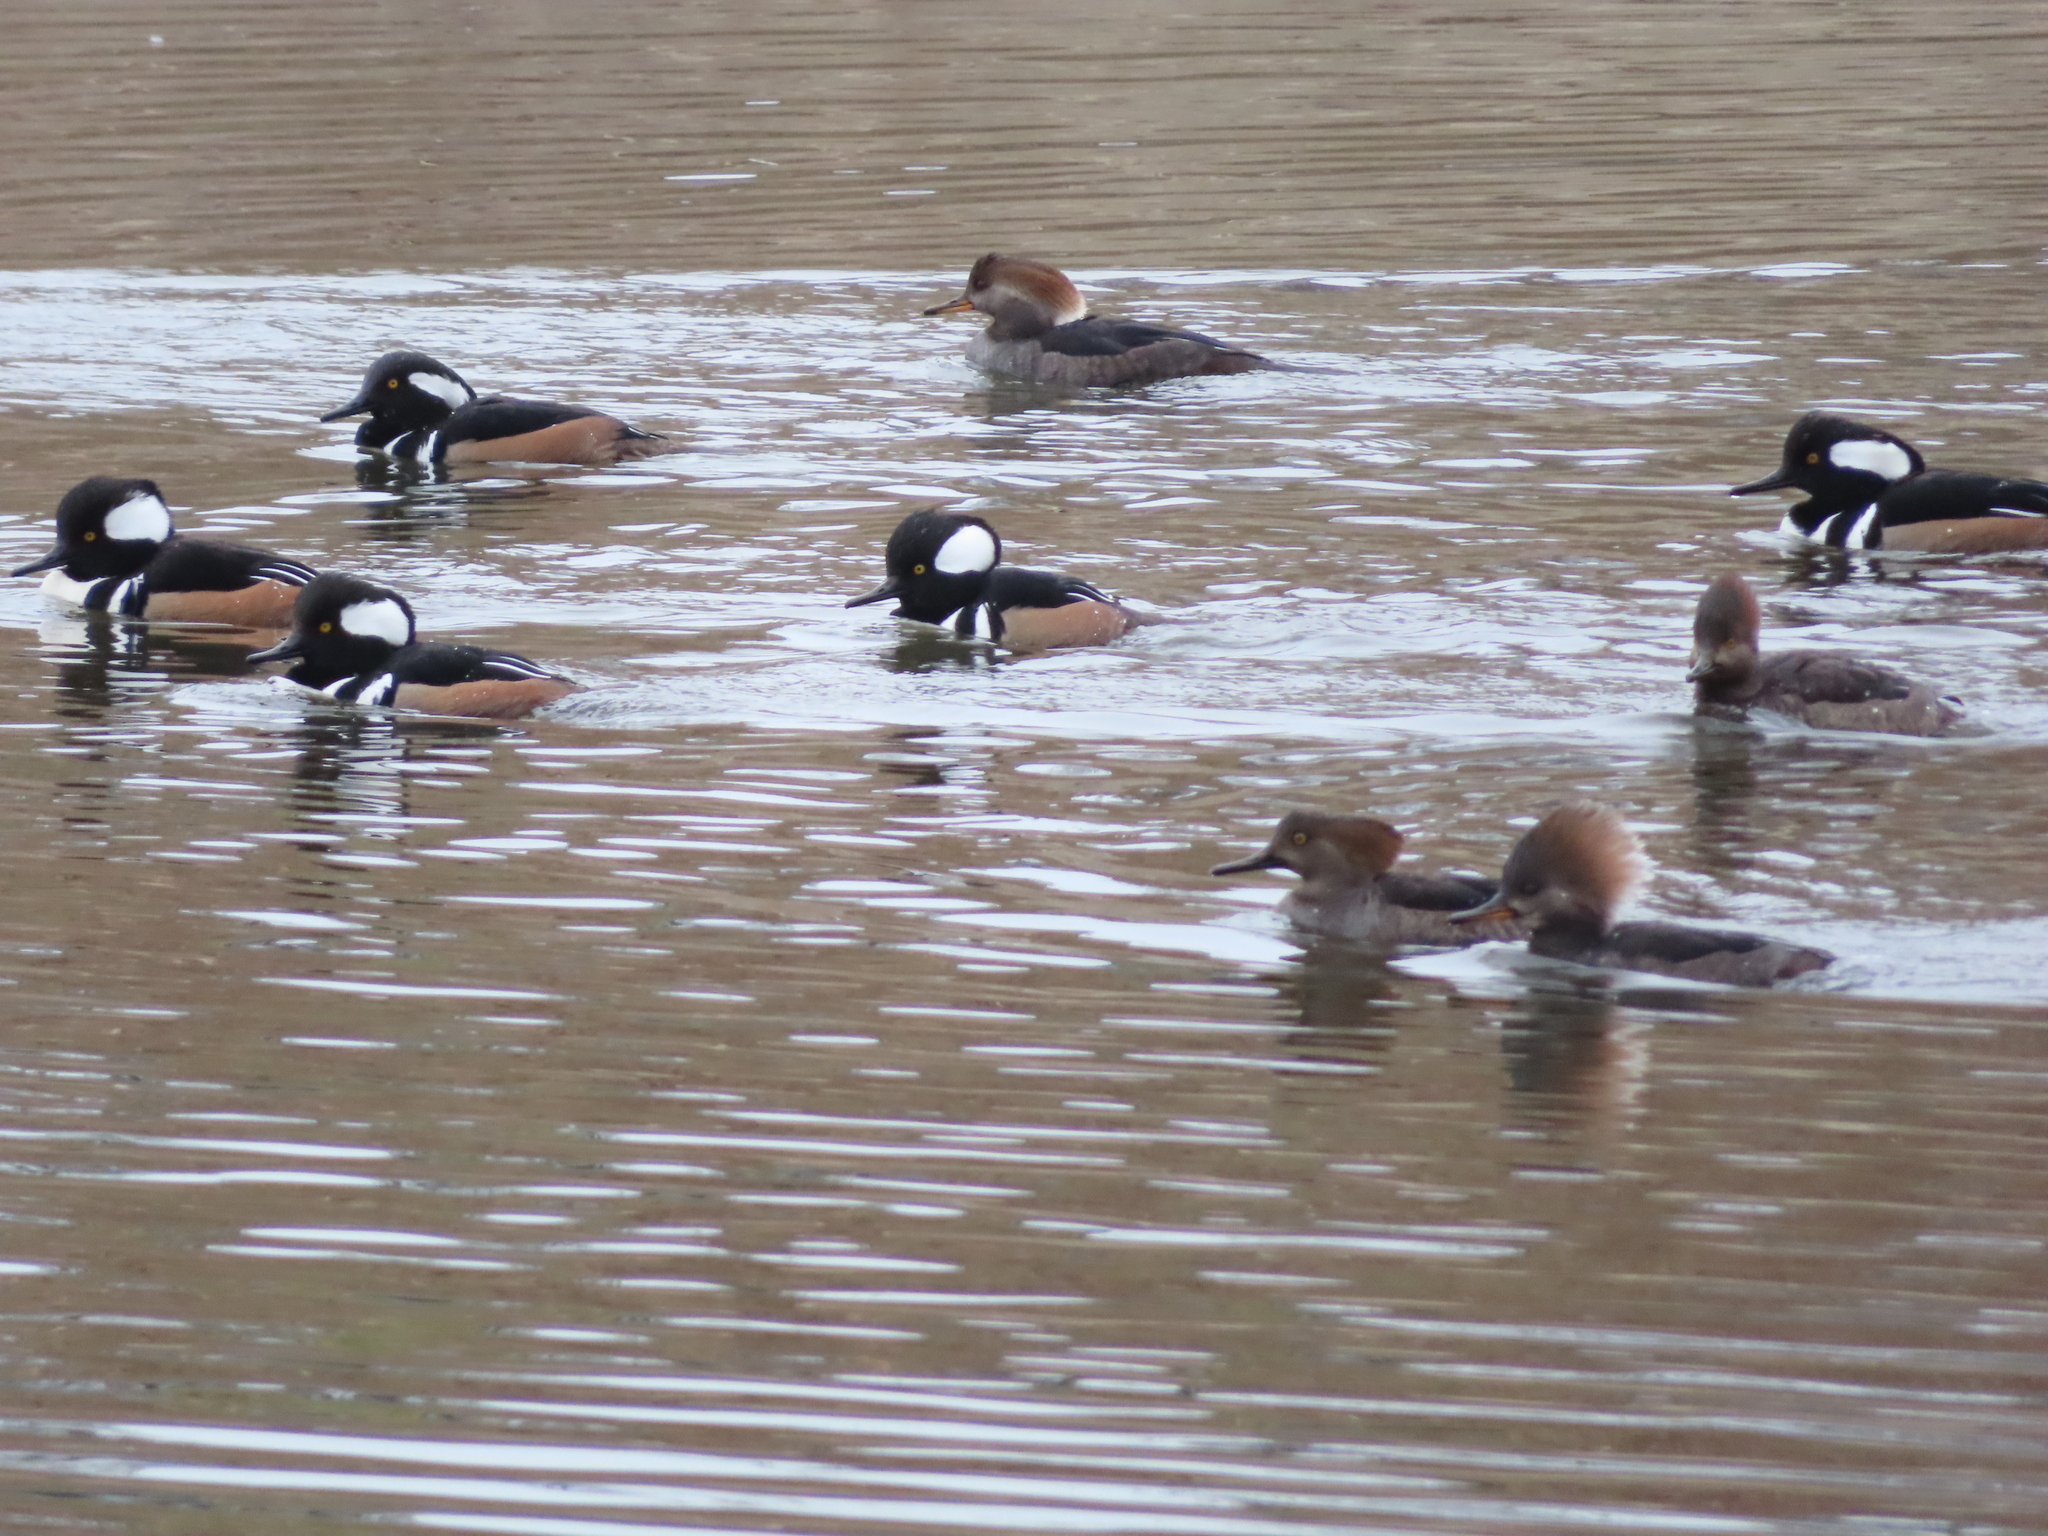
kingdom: Animalia
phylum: Chordata
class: Aves
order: Anseriformes
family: Anatidae
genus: Lophodytes
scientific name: Lophodytes cucullatus
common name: Hooded merganser
